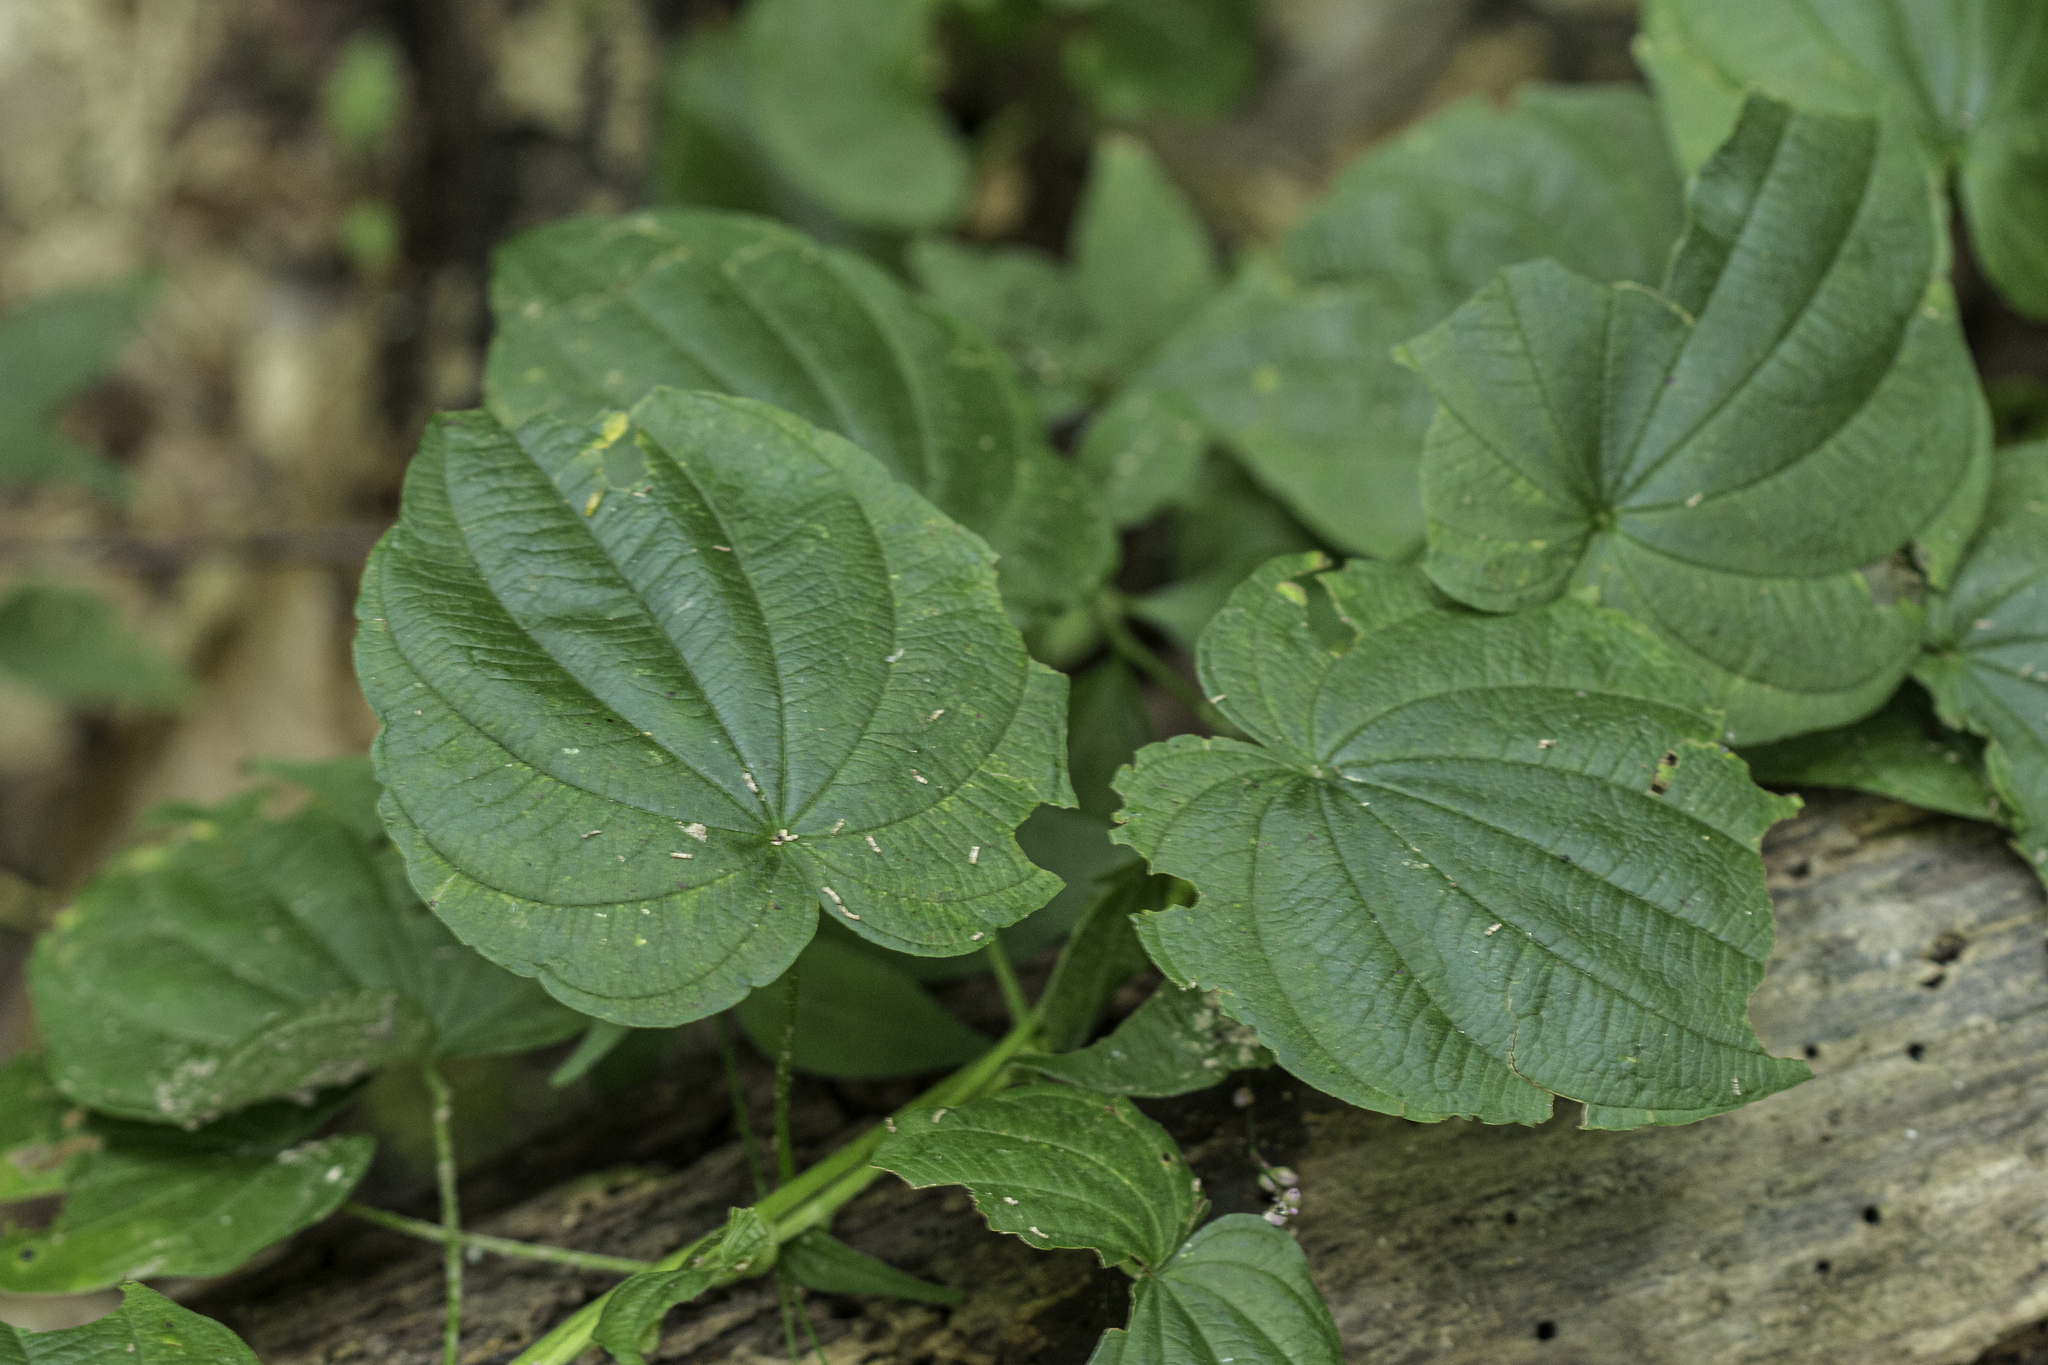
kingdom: Plantae
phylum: Tracheophyta
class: Liliopsida
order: Dioscoreales
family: Dioscoreaceae
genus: Dioscorea
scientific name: Dioscorea villosa
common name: Wild yam
